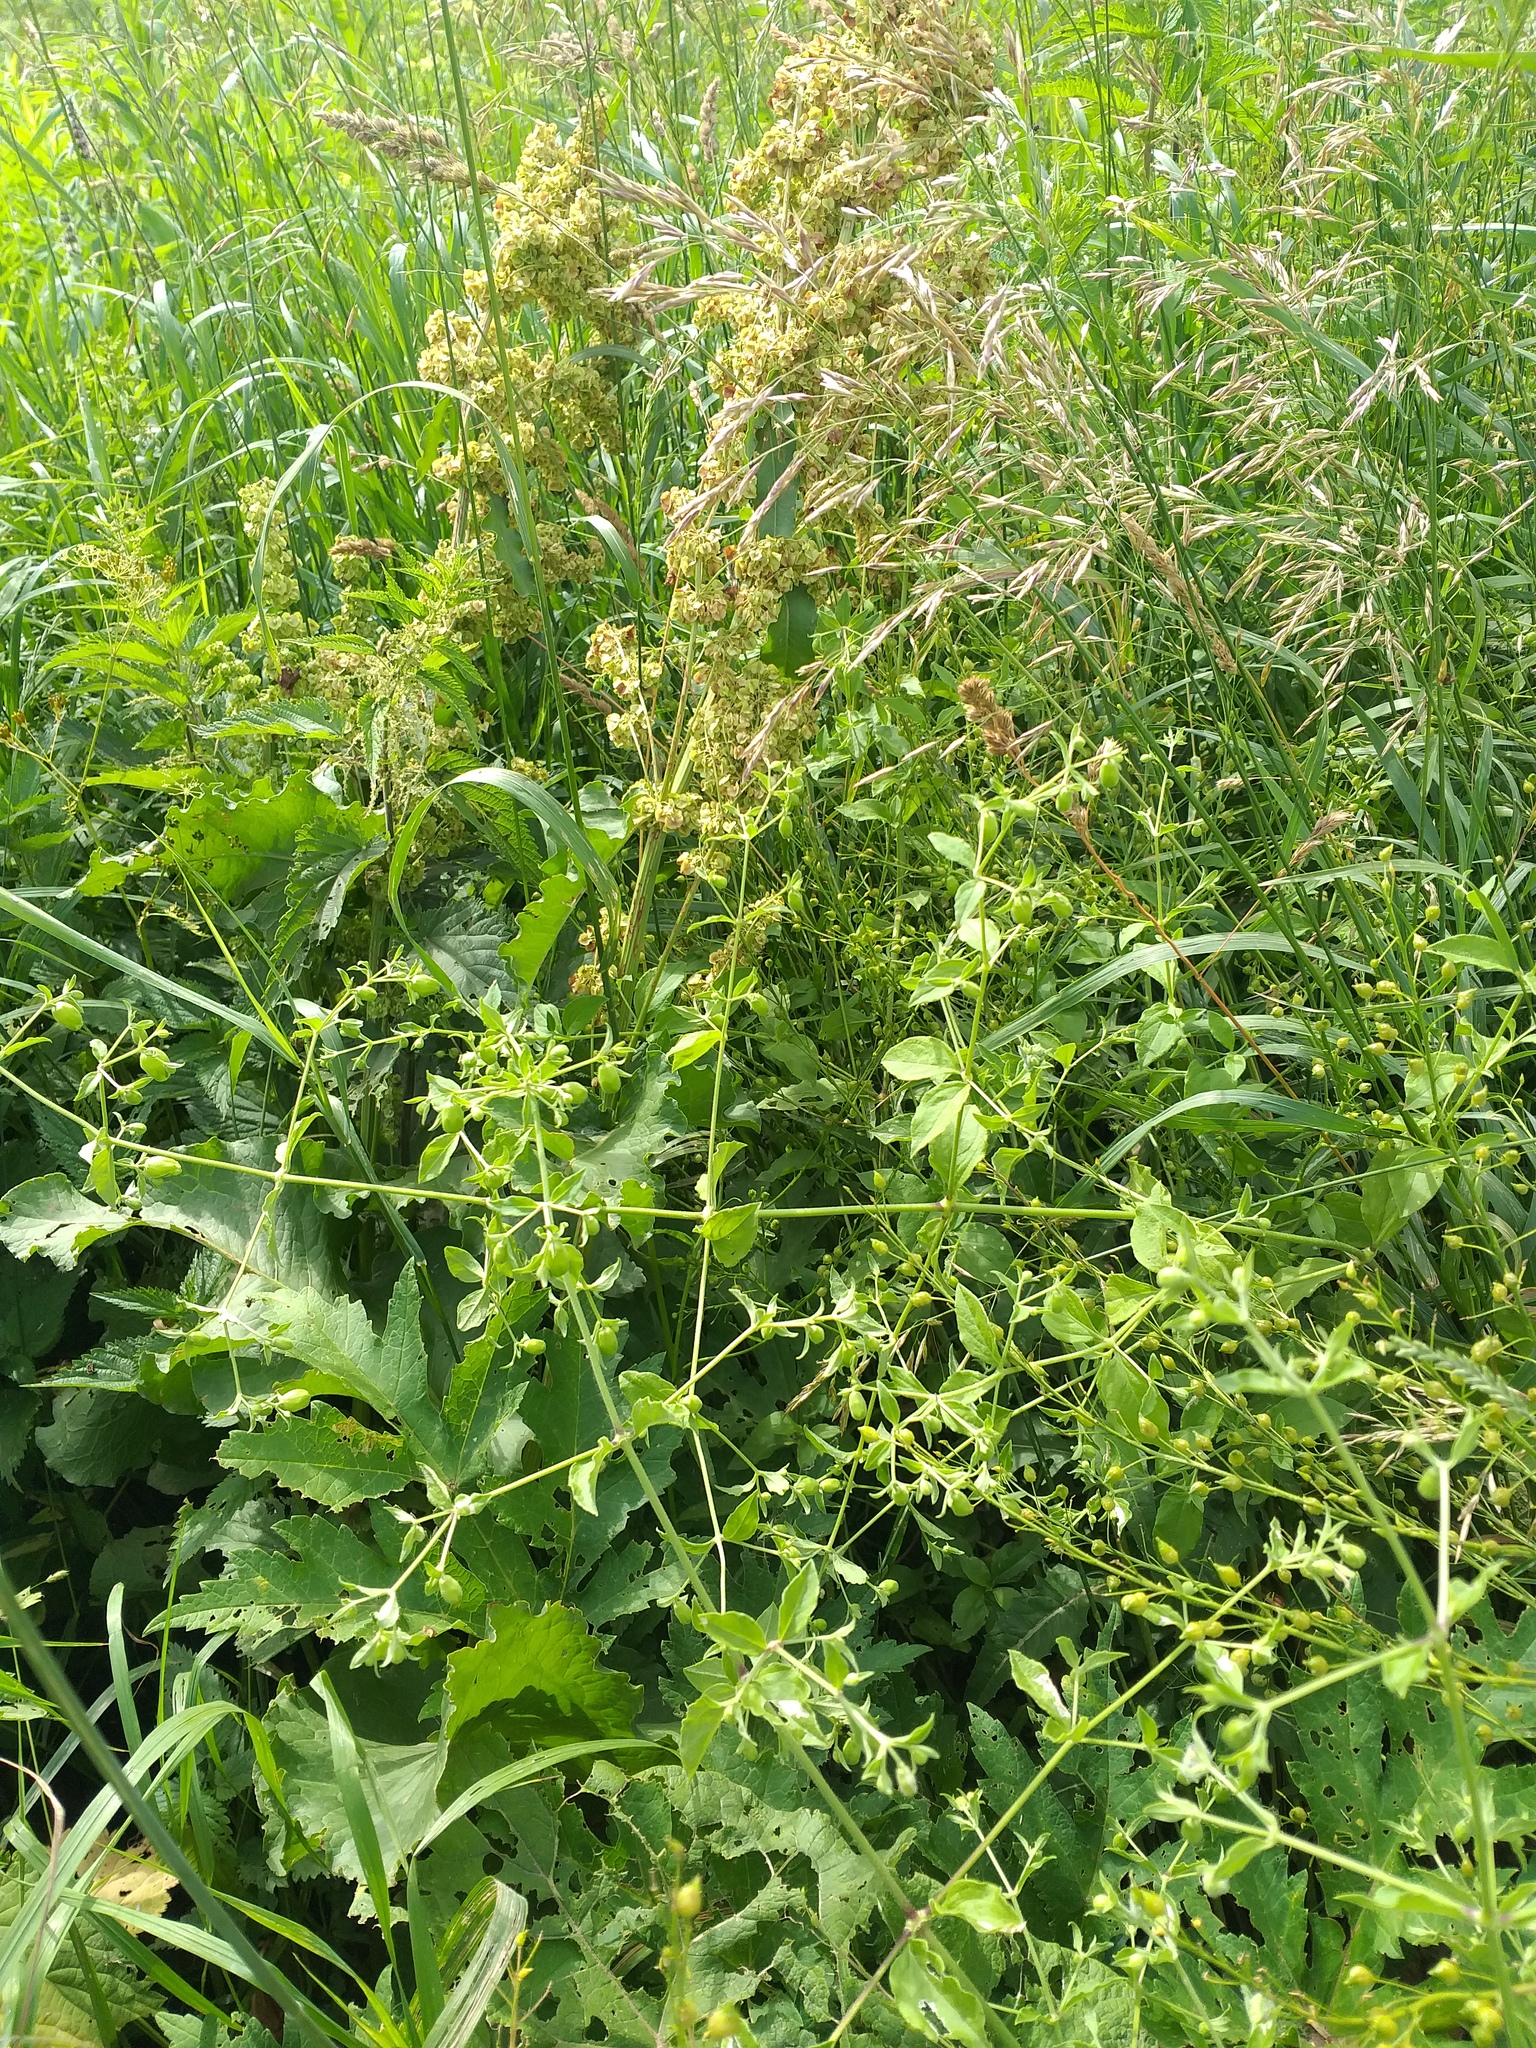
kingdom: Plantae
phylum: Tracheophyta
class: Magnoliopsida
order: Caryophyllales
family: Caryophyllaceae
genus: Silene
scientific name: Silene baccifera
